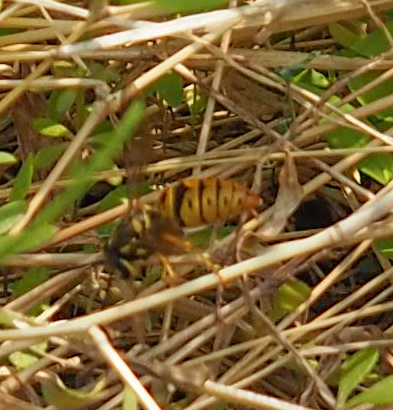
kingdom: Animalia
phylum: Arthropoda
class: Insecta
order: Hymenoptera
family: Vespidae
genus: Vespula
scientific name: Vespula maculifrons
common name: Eastern yellowjacket
